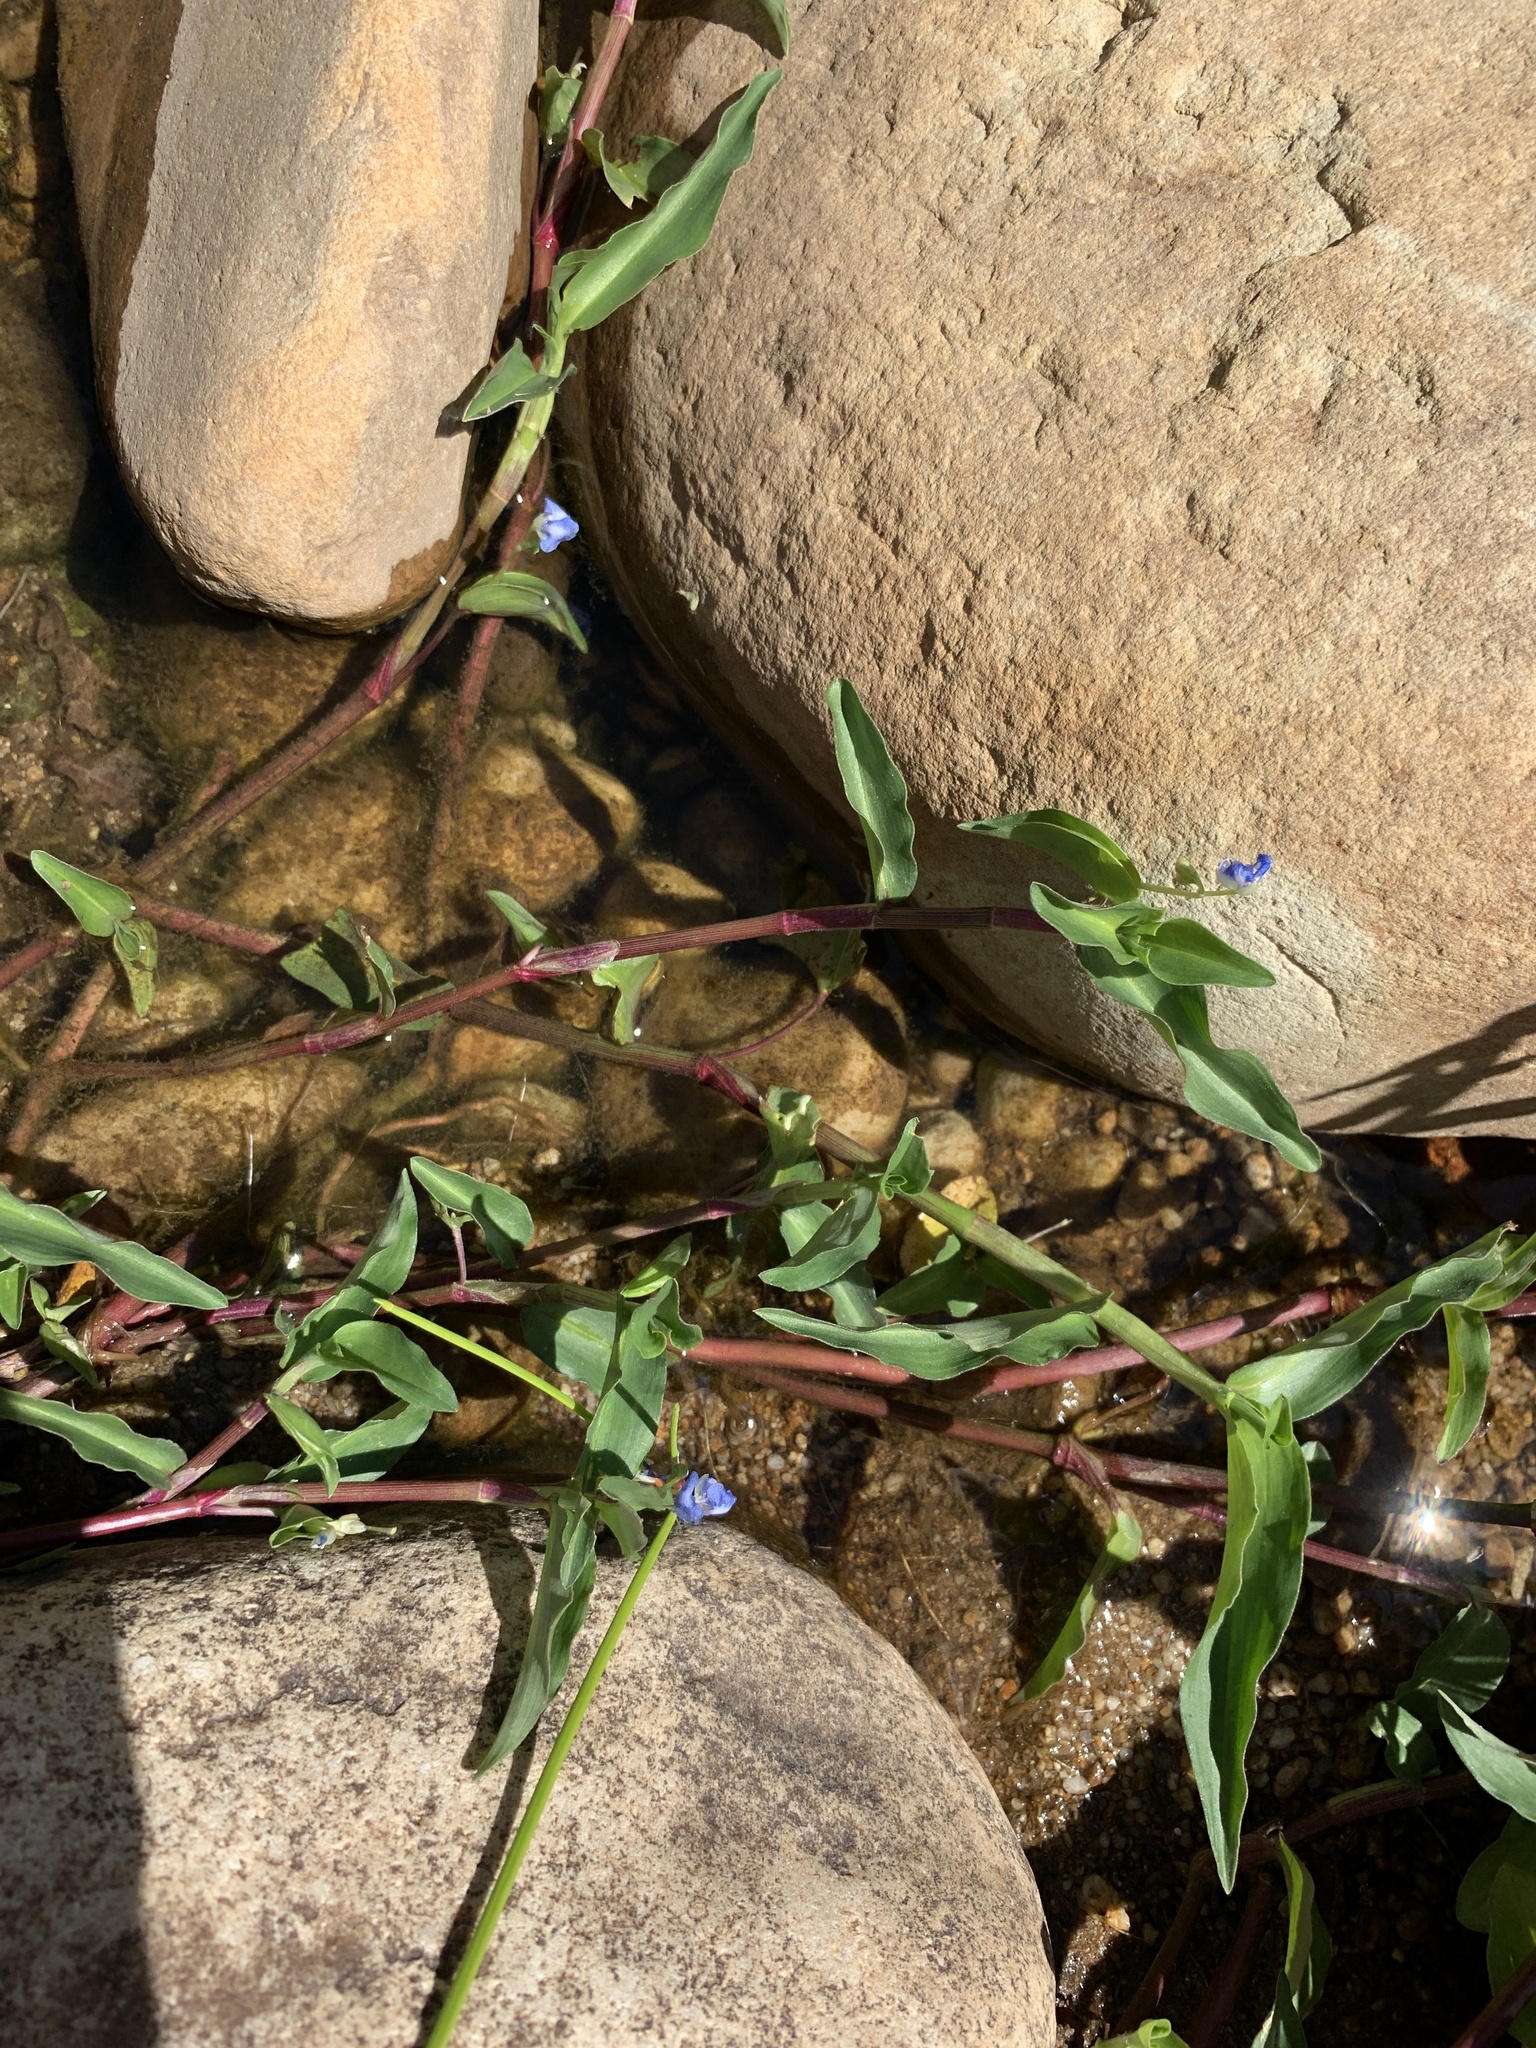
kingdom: Plantae
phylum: Tracheophyta
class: Liliopsida
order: Commelinales
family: Commelinaceae
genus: Commelina
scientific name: Commelina diffusa
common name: Climbing dayflower
